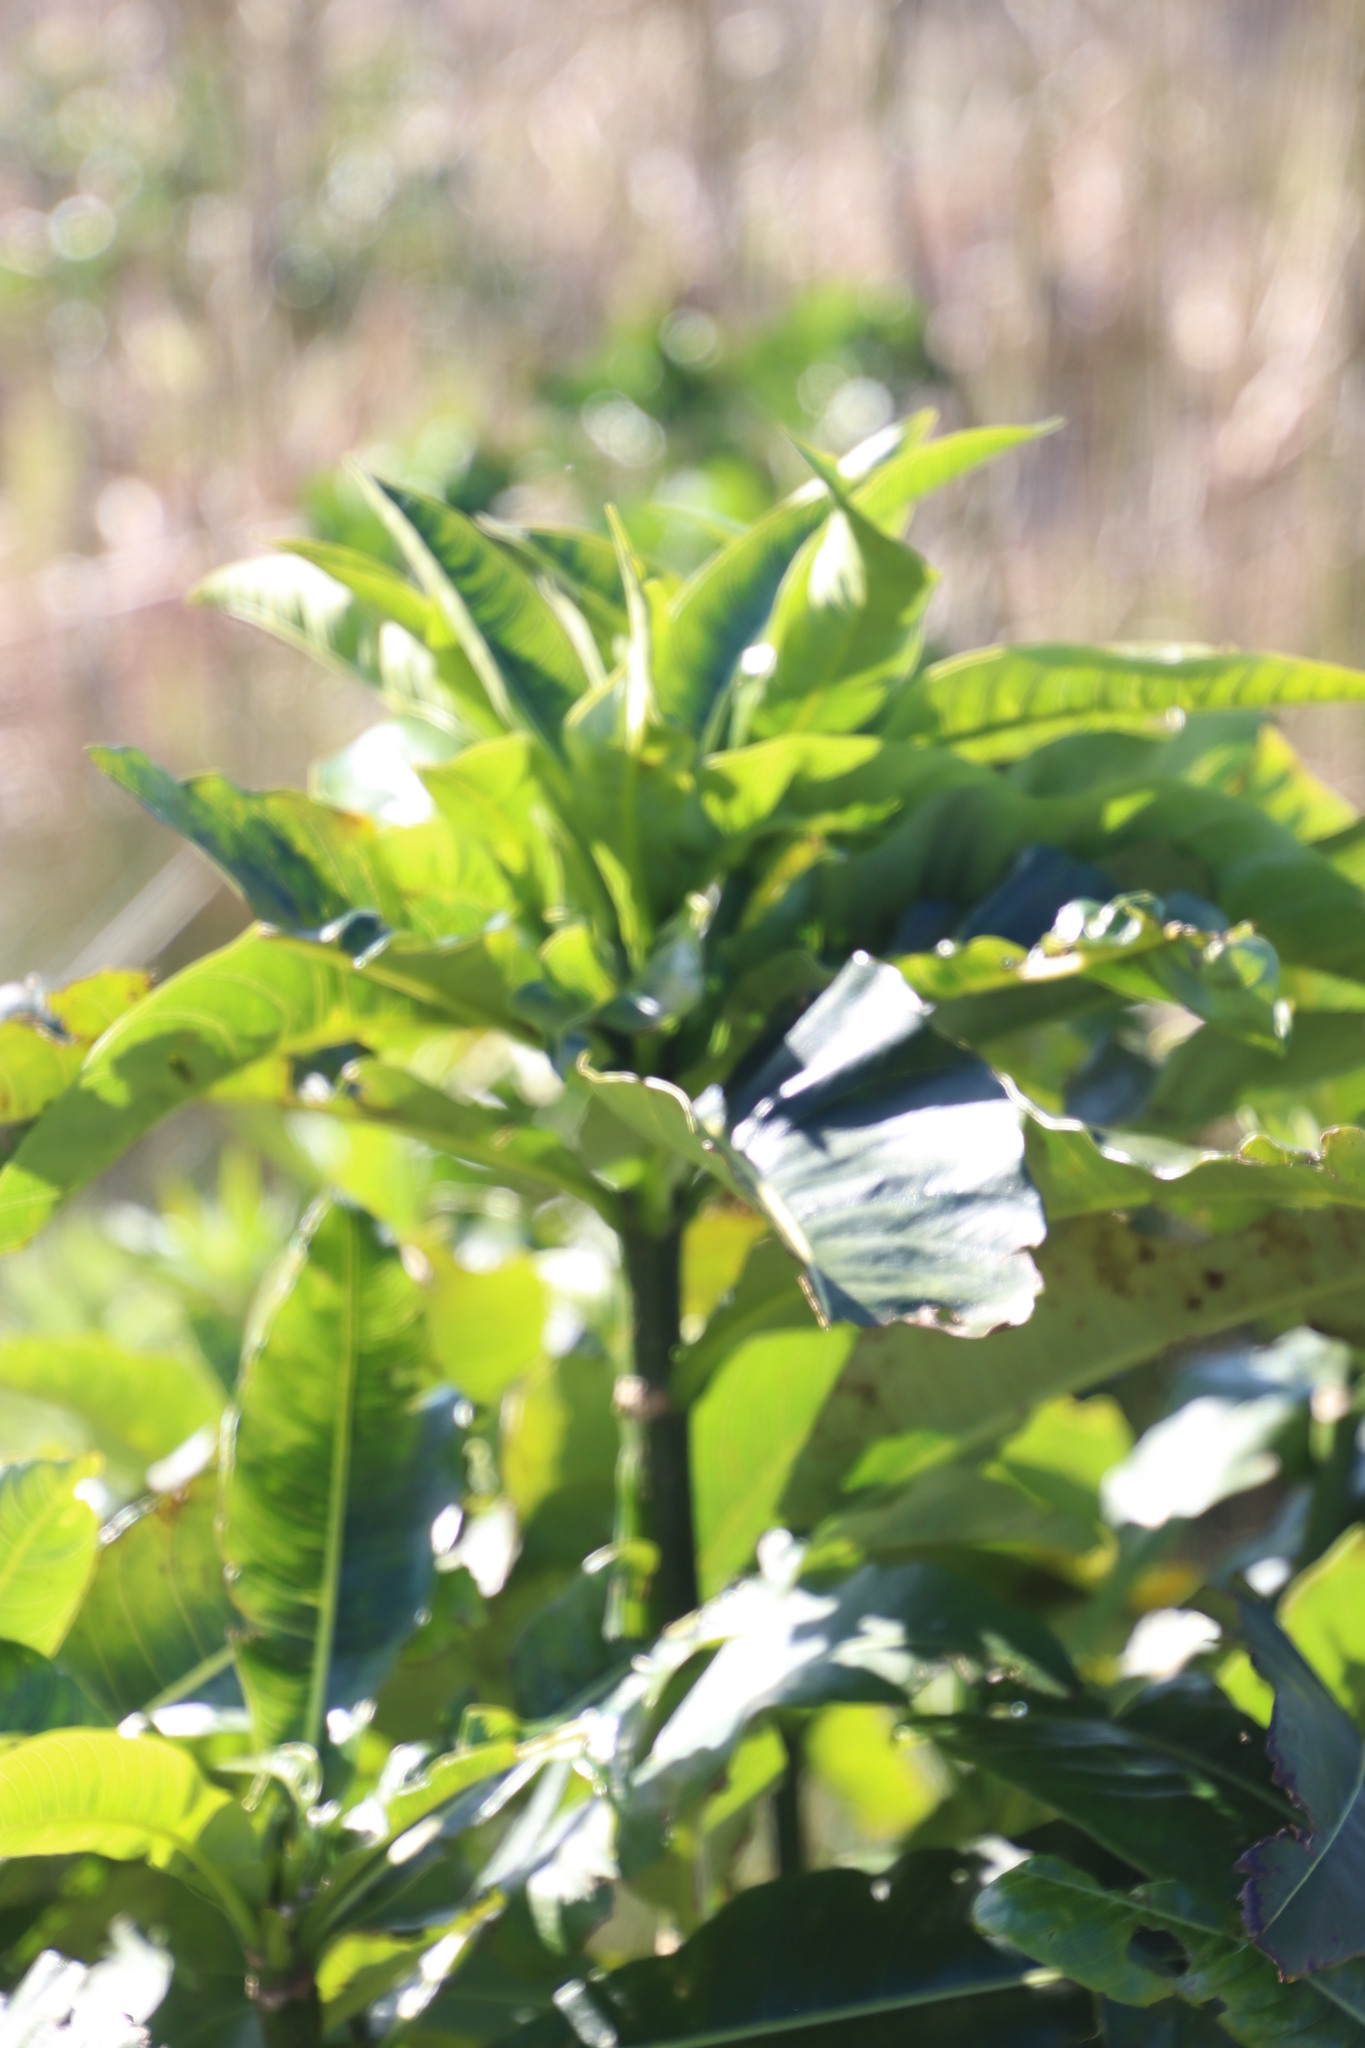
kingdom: Plantae
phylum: Tracheophyta
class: Magnoliopsida
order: Gentianales
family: Apocynaceae
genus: Rauvolfia
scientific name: Rauvolfia caffra
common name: Quininetree
